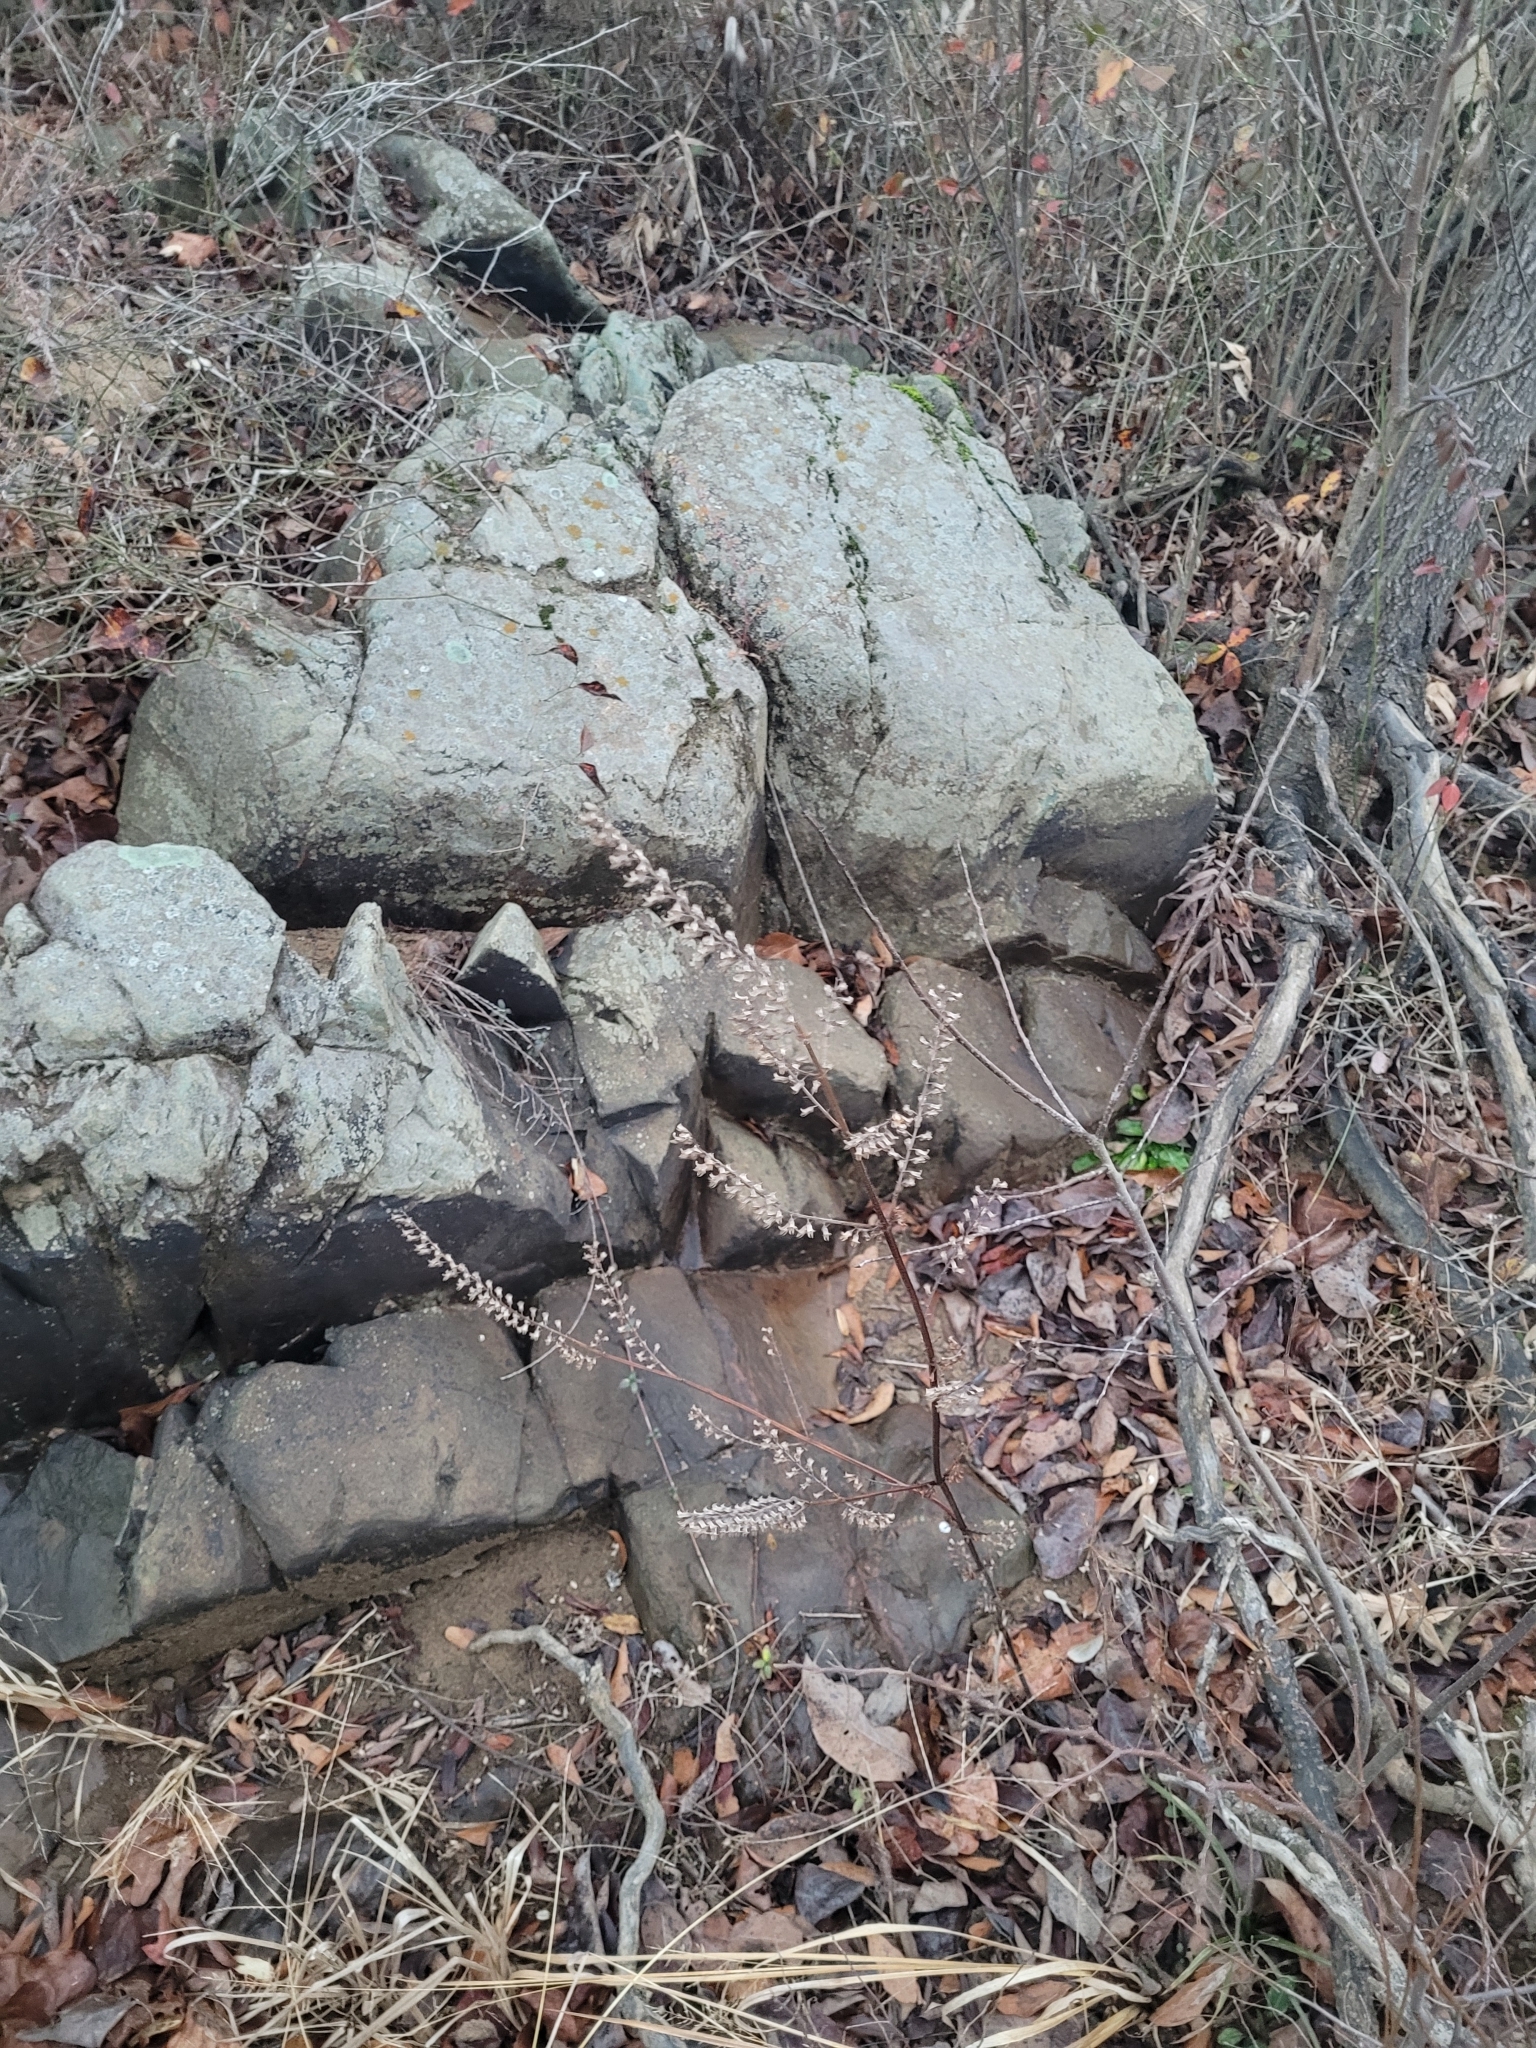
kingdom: Plantae
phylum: Tracheophyta
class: Magnoliopsida
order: Lamiales
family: Lamiaceae
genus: Perilla
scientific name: Perilla frutescens
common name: Perilla
